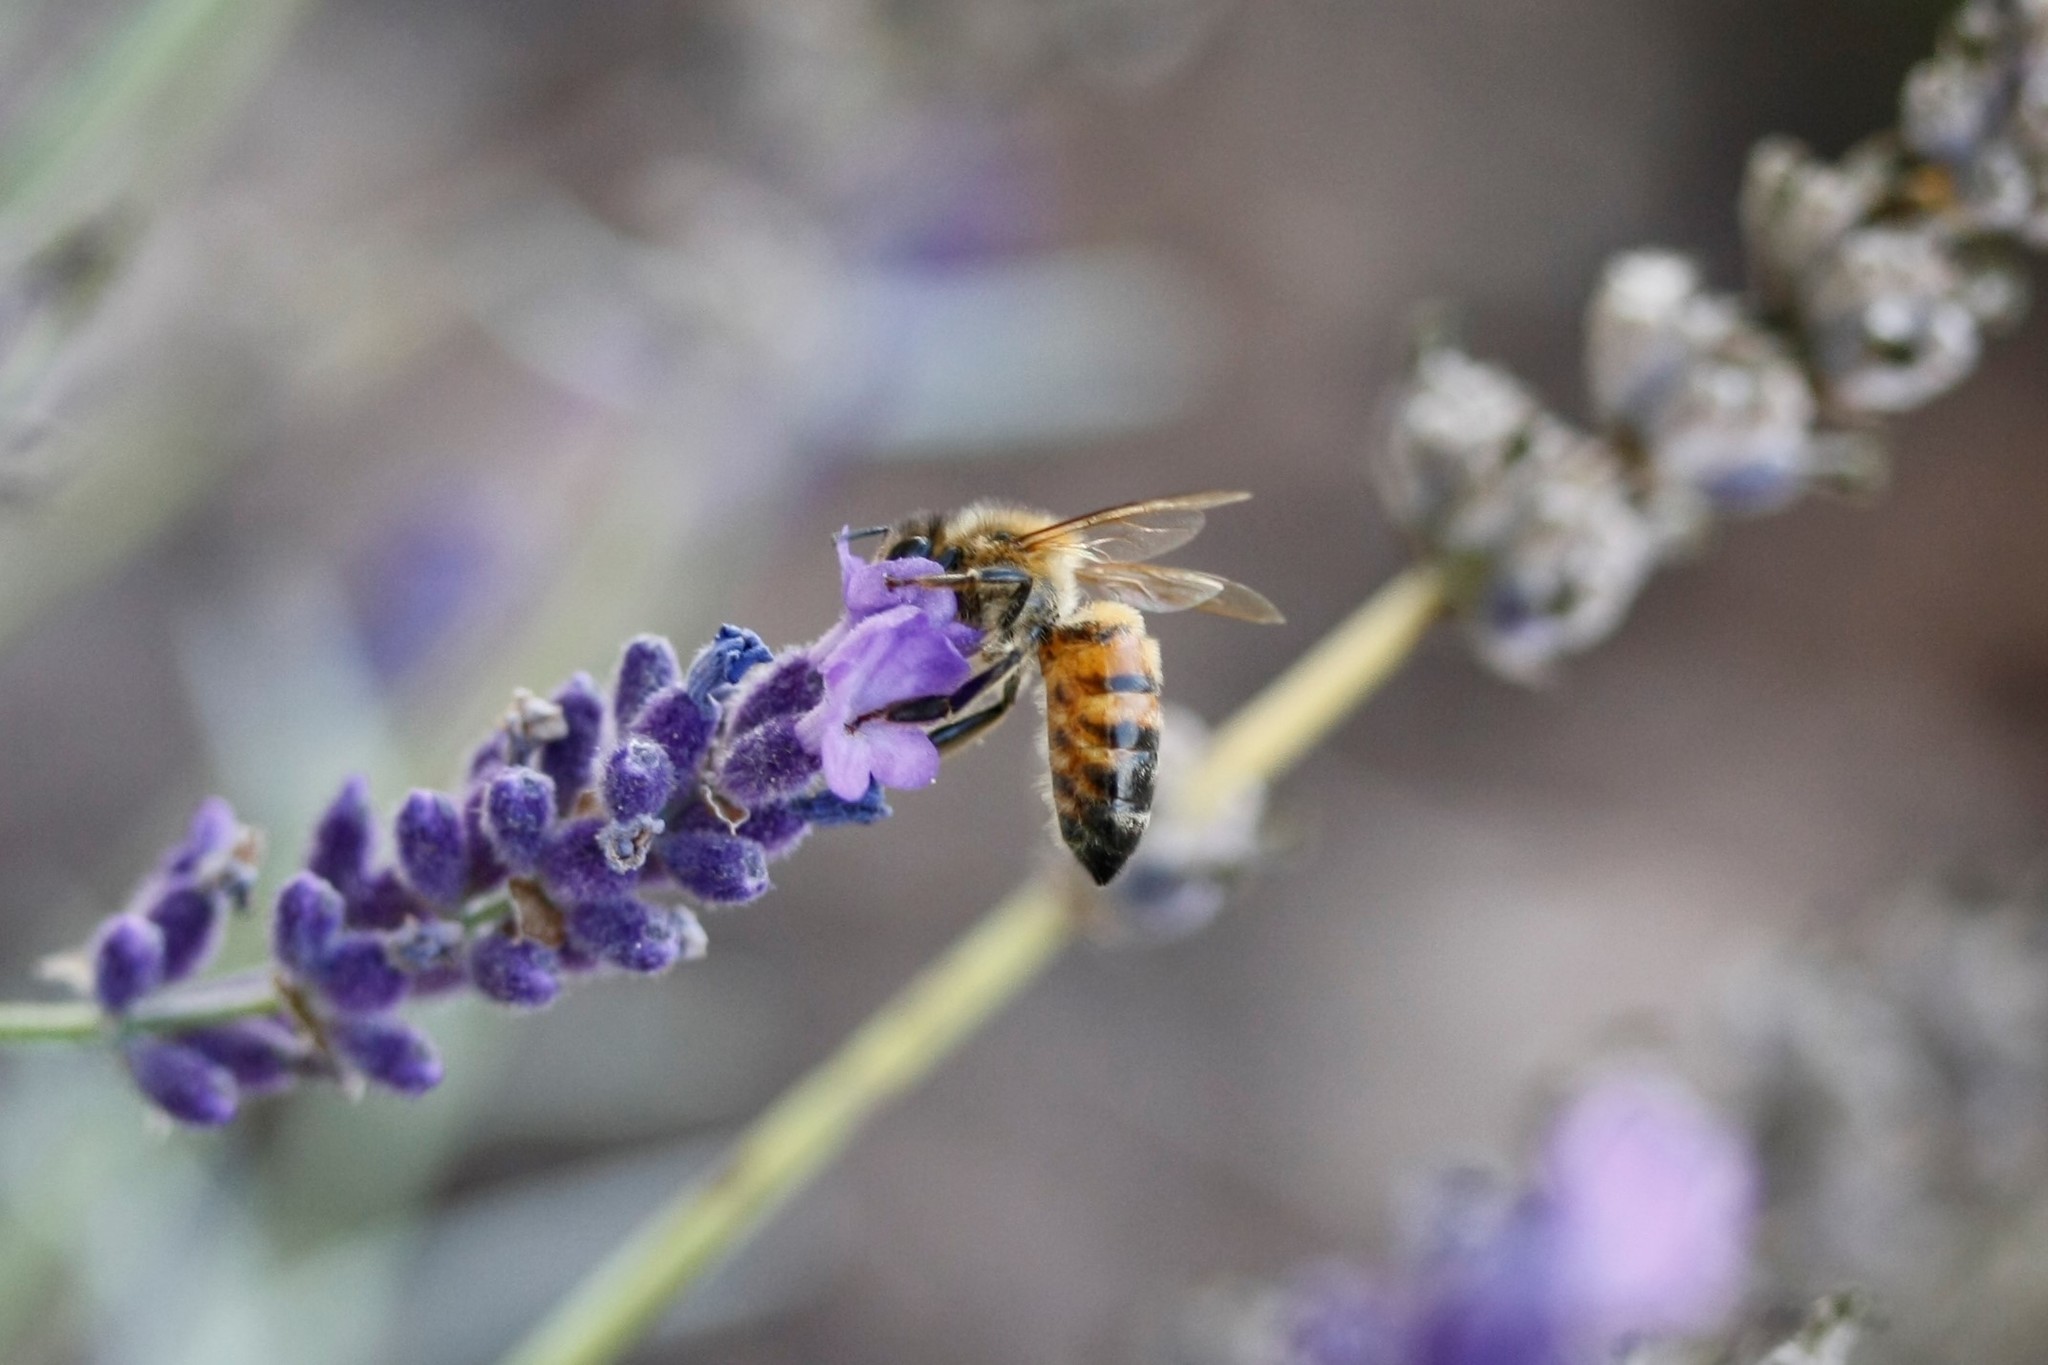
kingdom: Animalia
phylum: Arthropoda
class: Insecta
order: Hymenoptera
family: Apidae
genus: Apis
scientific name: Apis mellifera
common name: Honey bee
